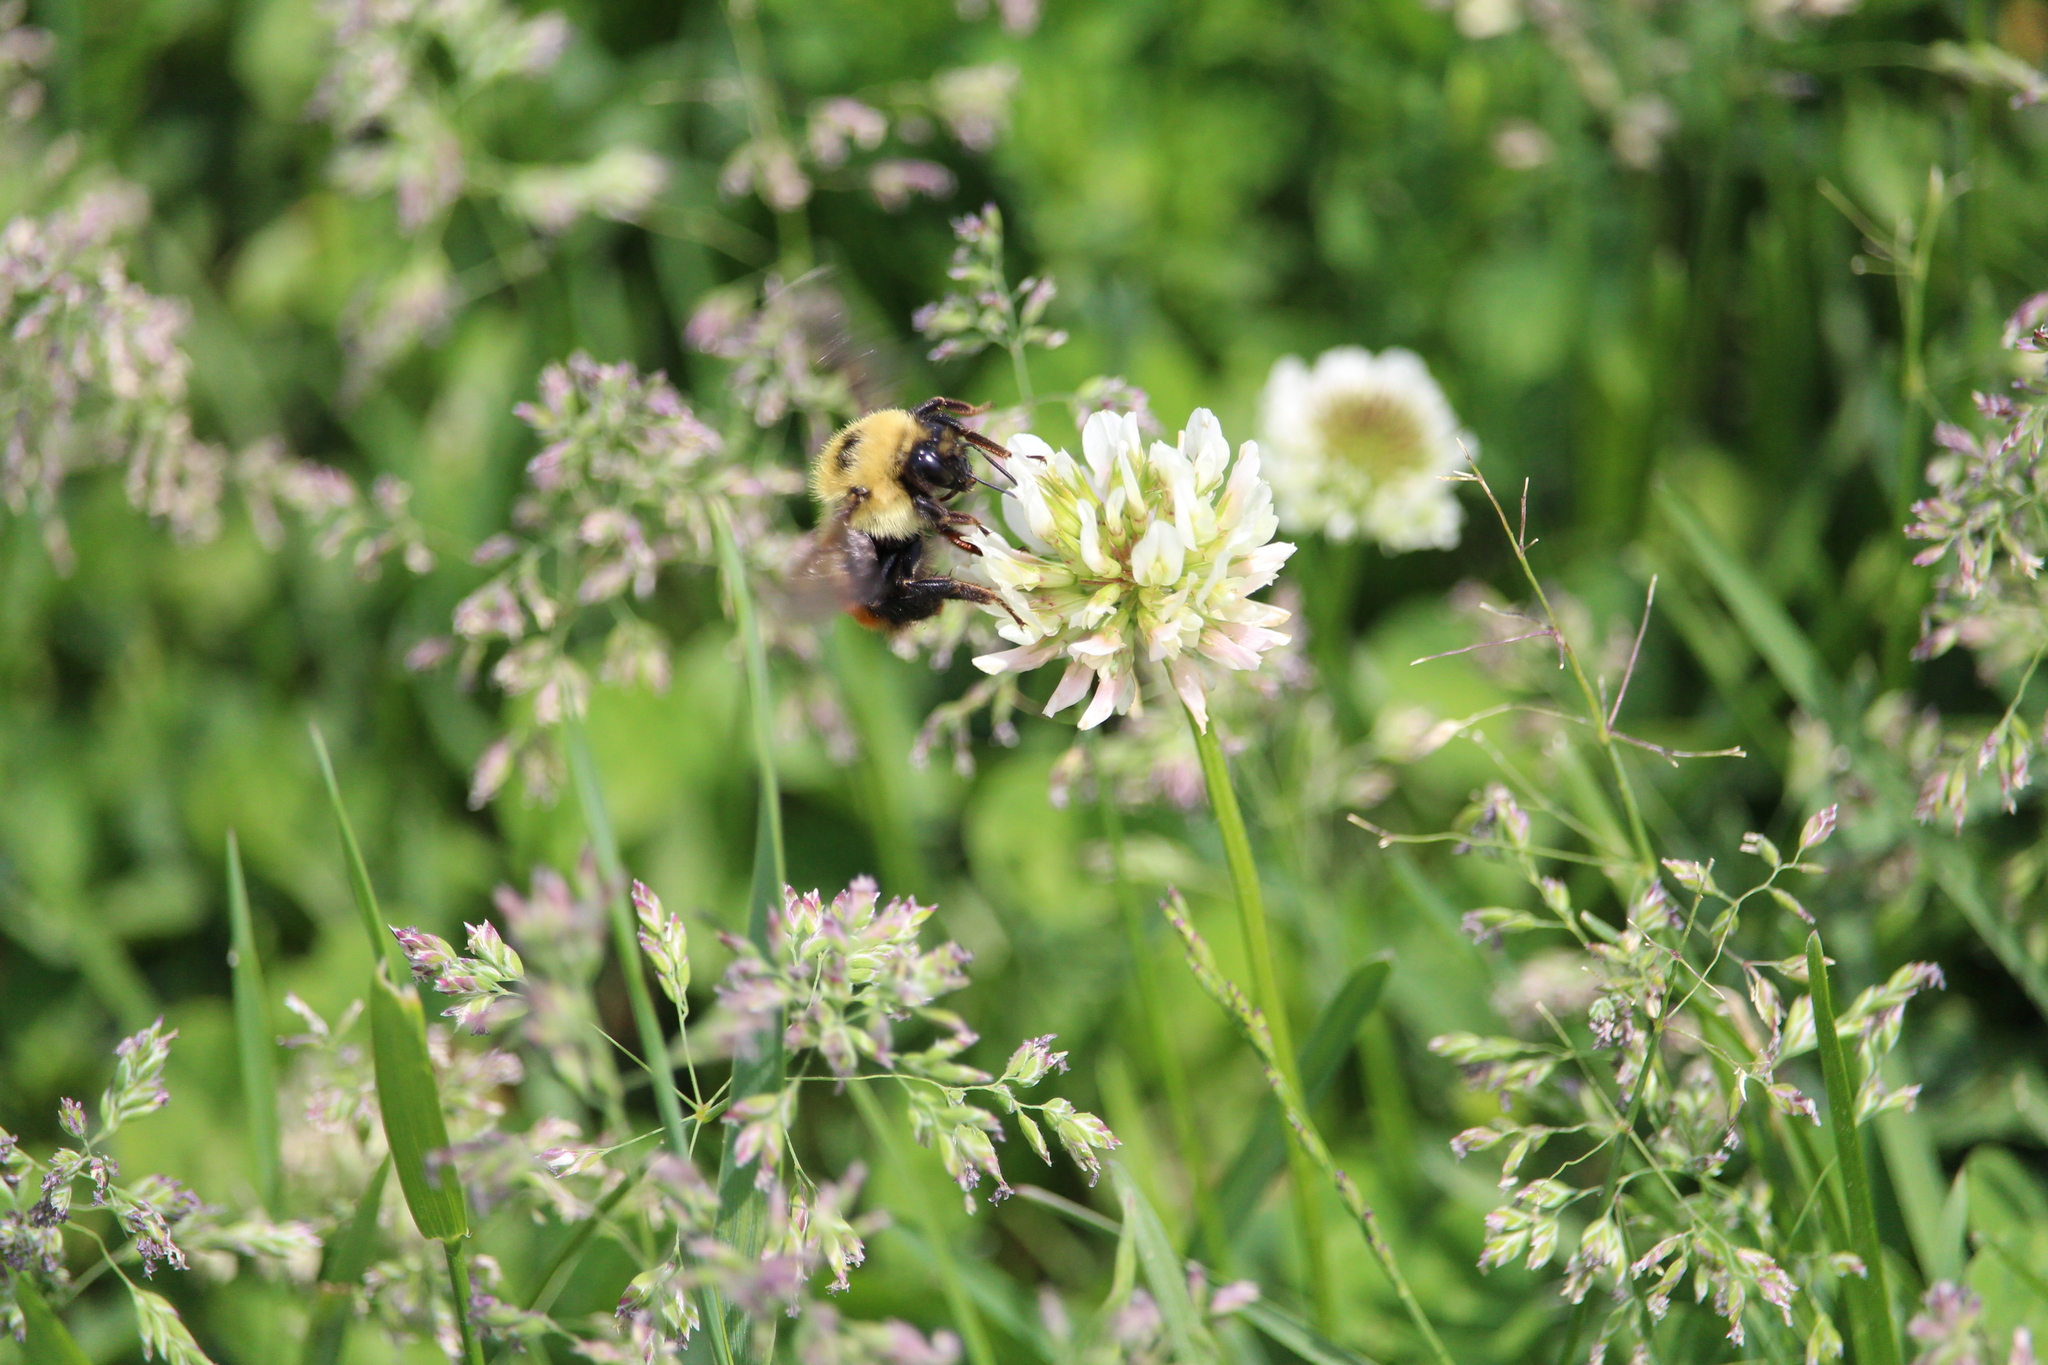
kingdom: Animalia
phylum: Arthropoda
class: Insecta
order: Hymenoptera
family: Apidae
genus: Bombus
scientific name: Bombus rufocinctus
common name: Red-belted bumble bee
